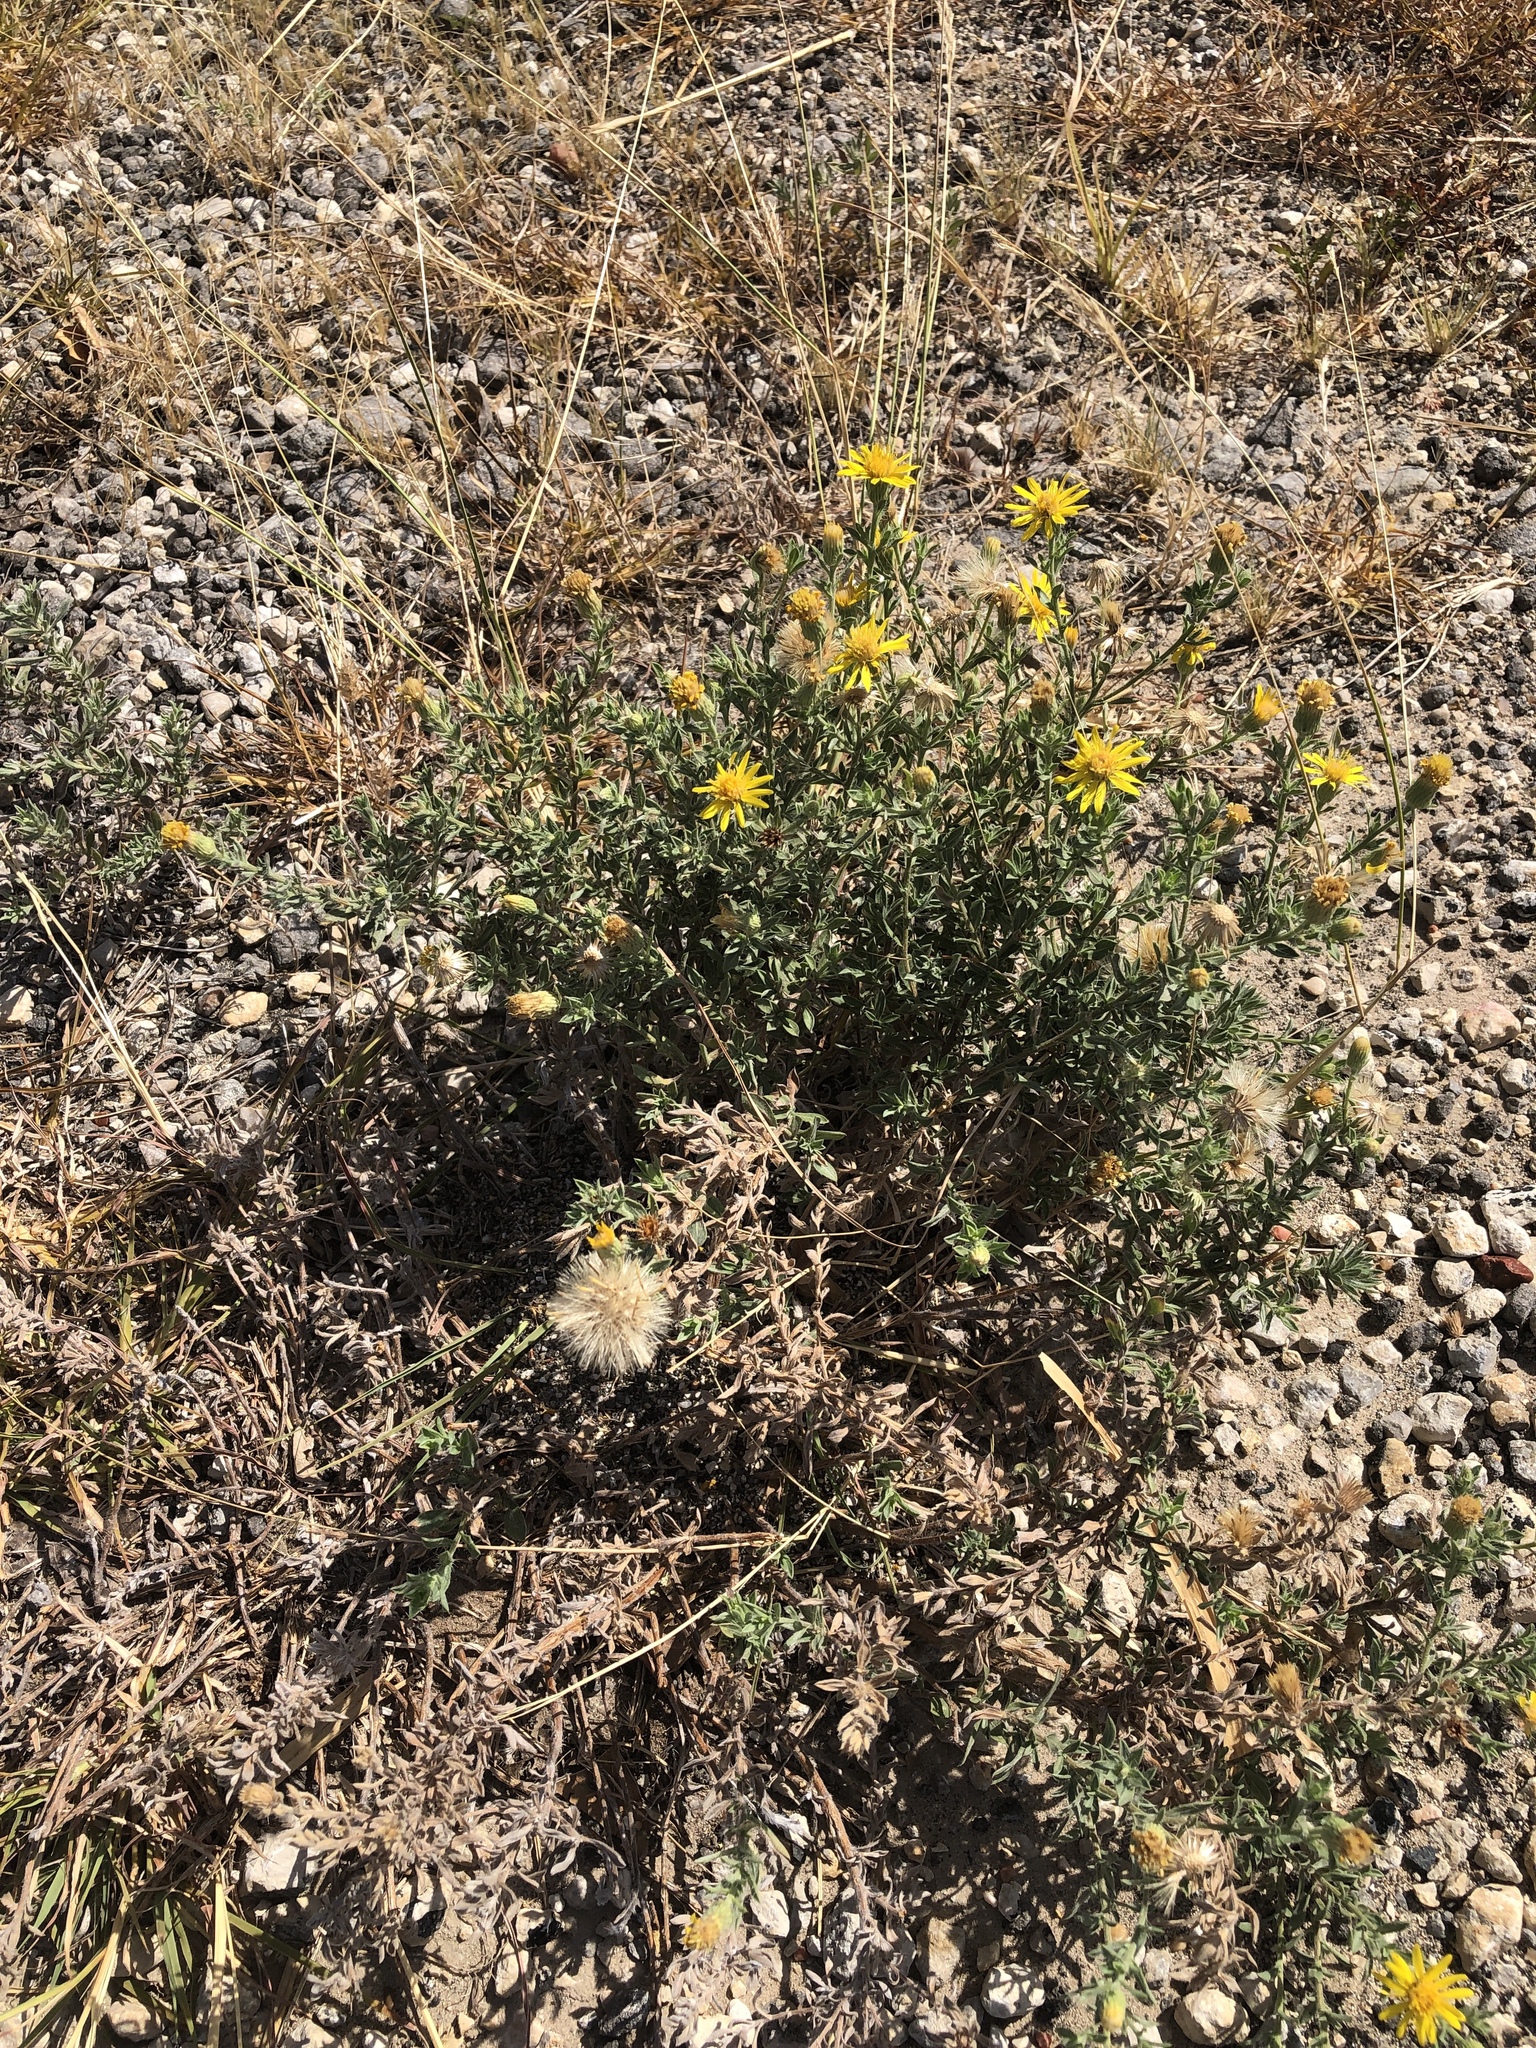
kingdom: Plantae
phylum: Tracheophyta
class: Magnoliopsida
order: Asterales
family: Asteraceae
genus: Heterotheca
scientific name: Heterotheca canescens
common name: Hoary golden-aster
